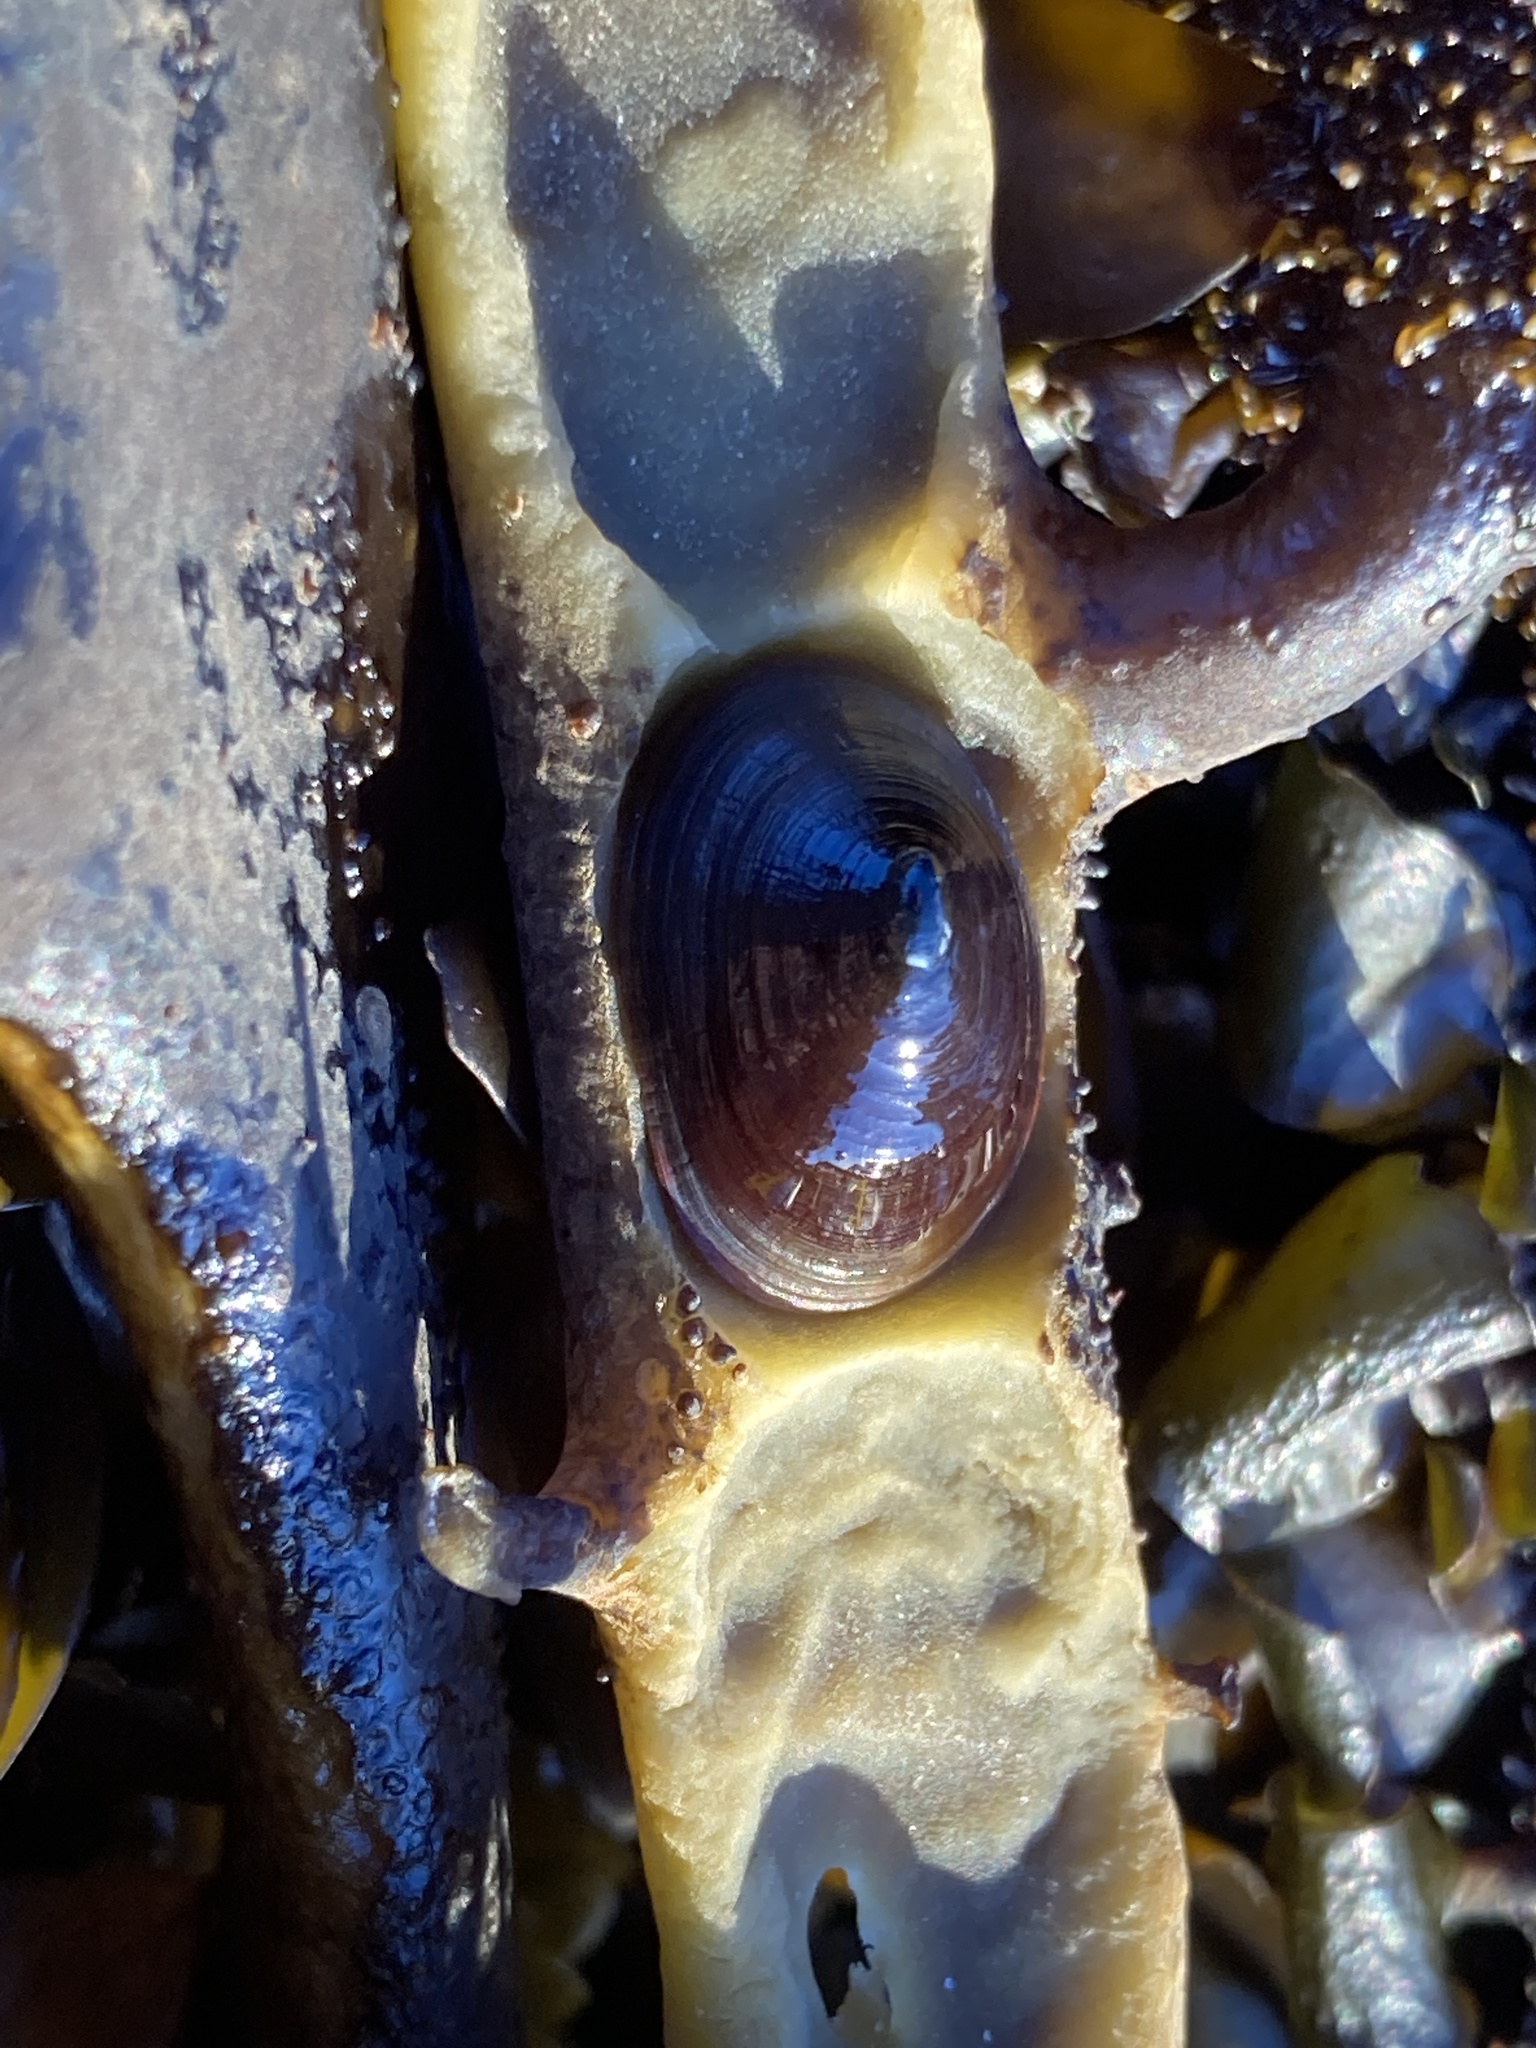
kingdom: Animalia
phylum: Mollusca
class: Gastropoda
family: Lottiidae
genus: Discurria
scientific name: Discurria insessa
